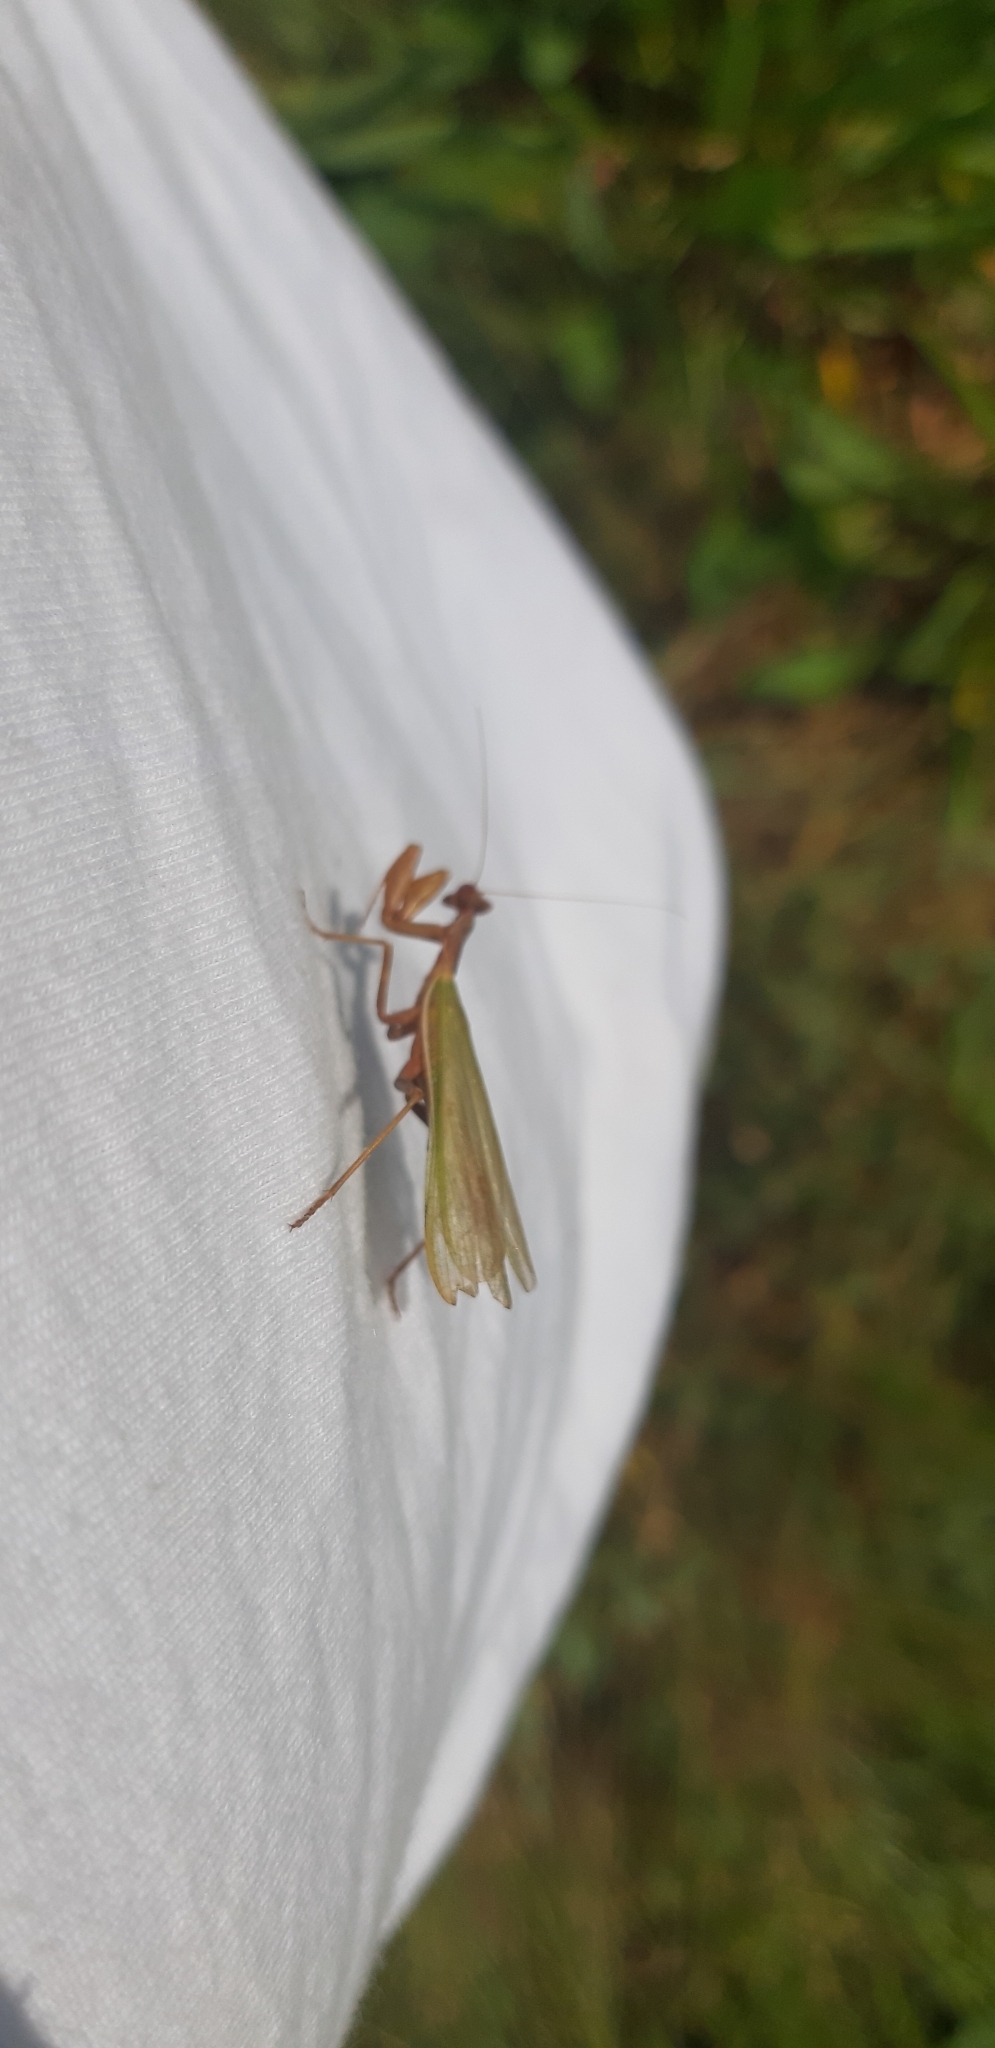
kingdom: Animalia
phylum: Arthropoda
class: Insecta
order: Mantodea
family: Amelidae
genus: Ameles
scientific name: Ameles spallanzania
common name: European dwarf mantis
